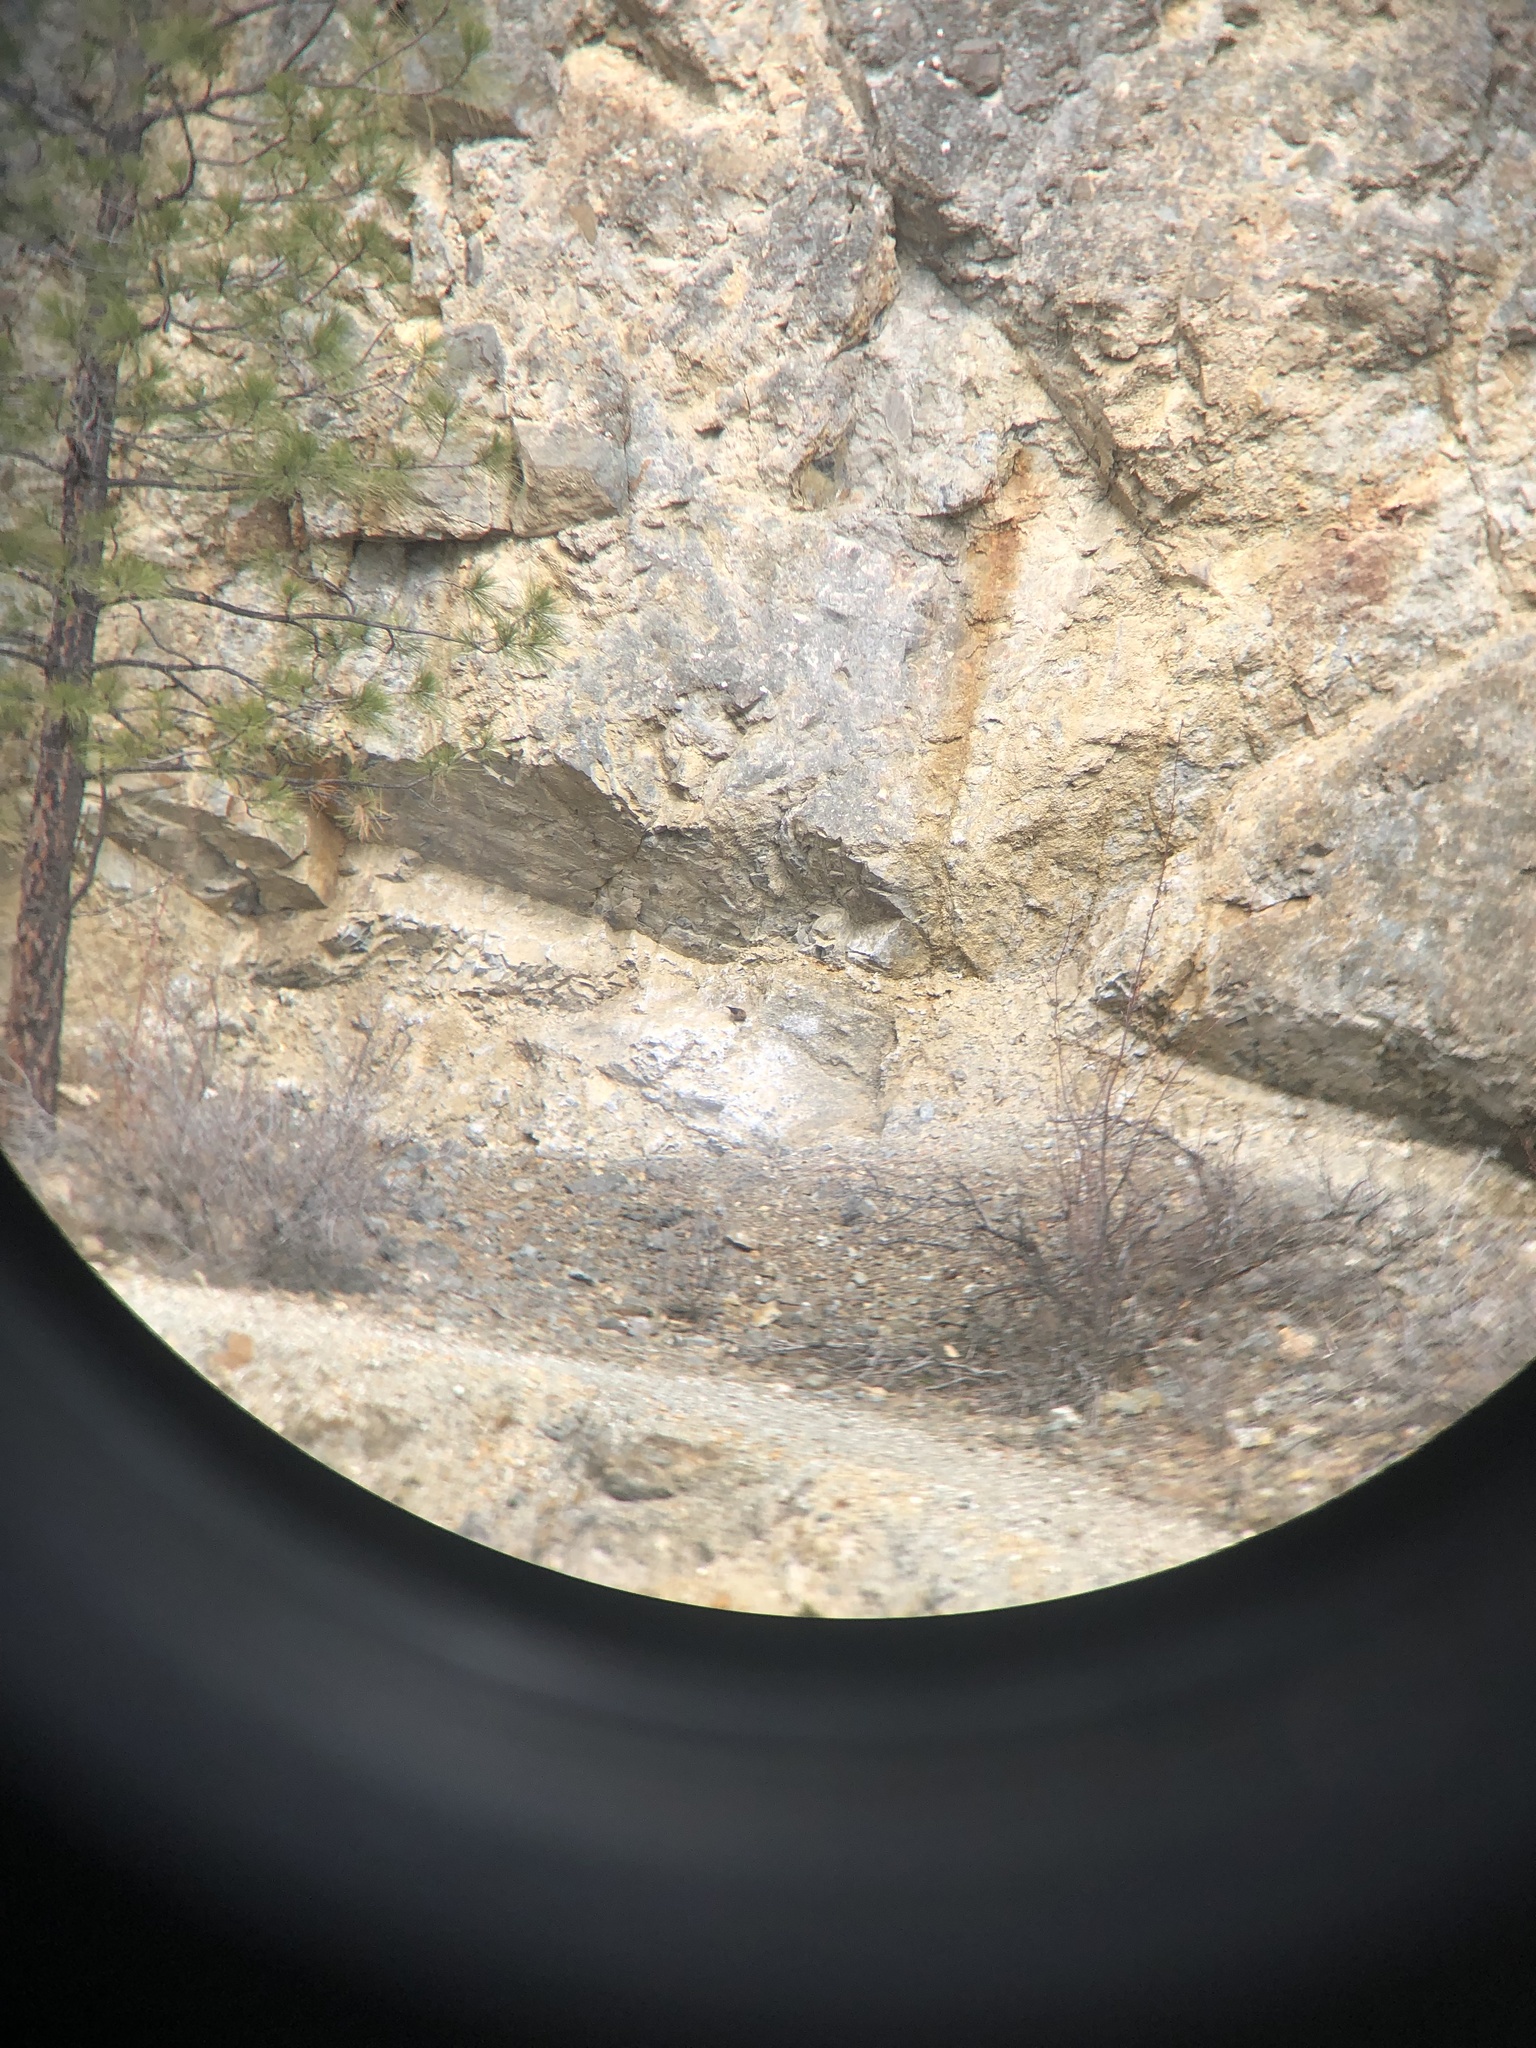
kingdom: Animalia
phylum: Chordata
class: Aves
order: Passeriformes
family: Fringillidae
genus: Loxia
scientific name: Loxia curvirostra
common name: Red crossbill
